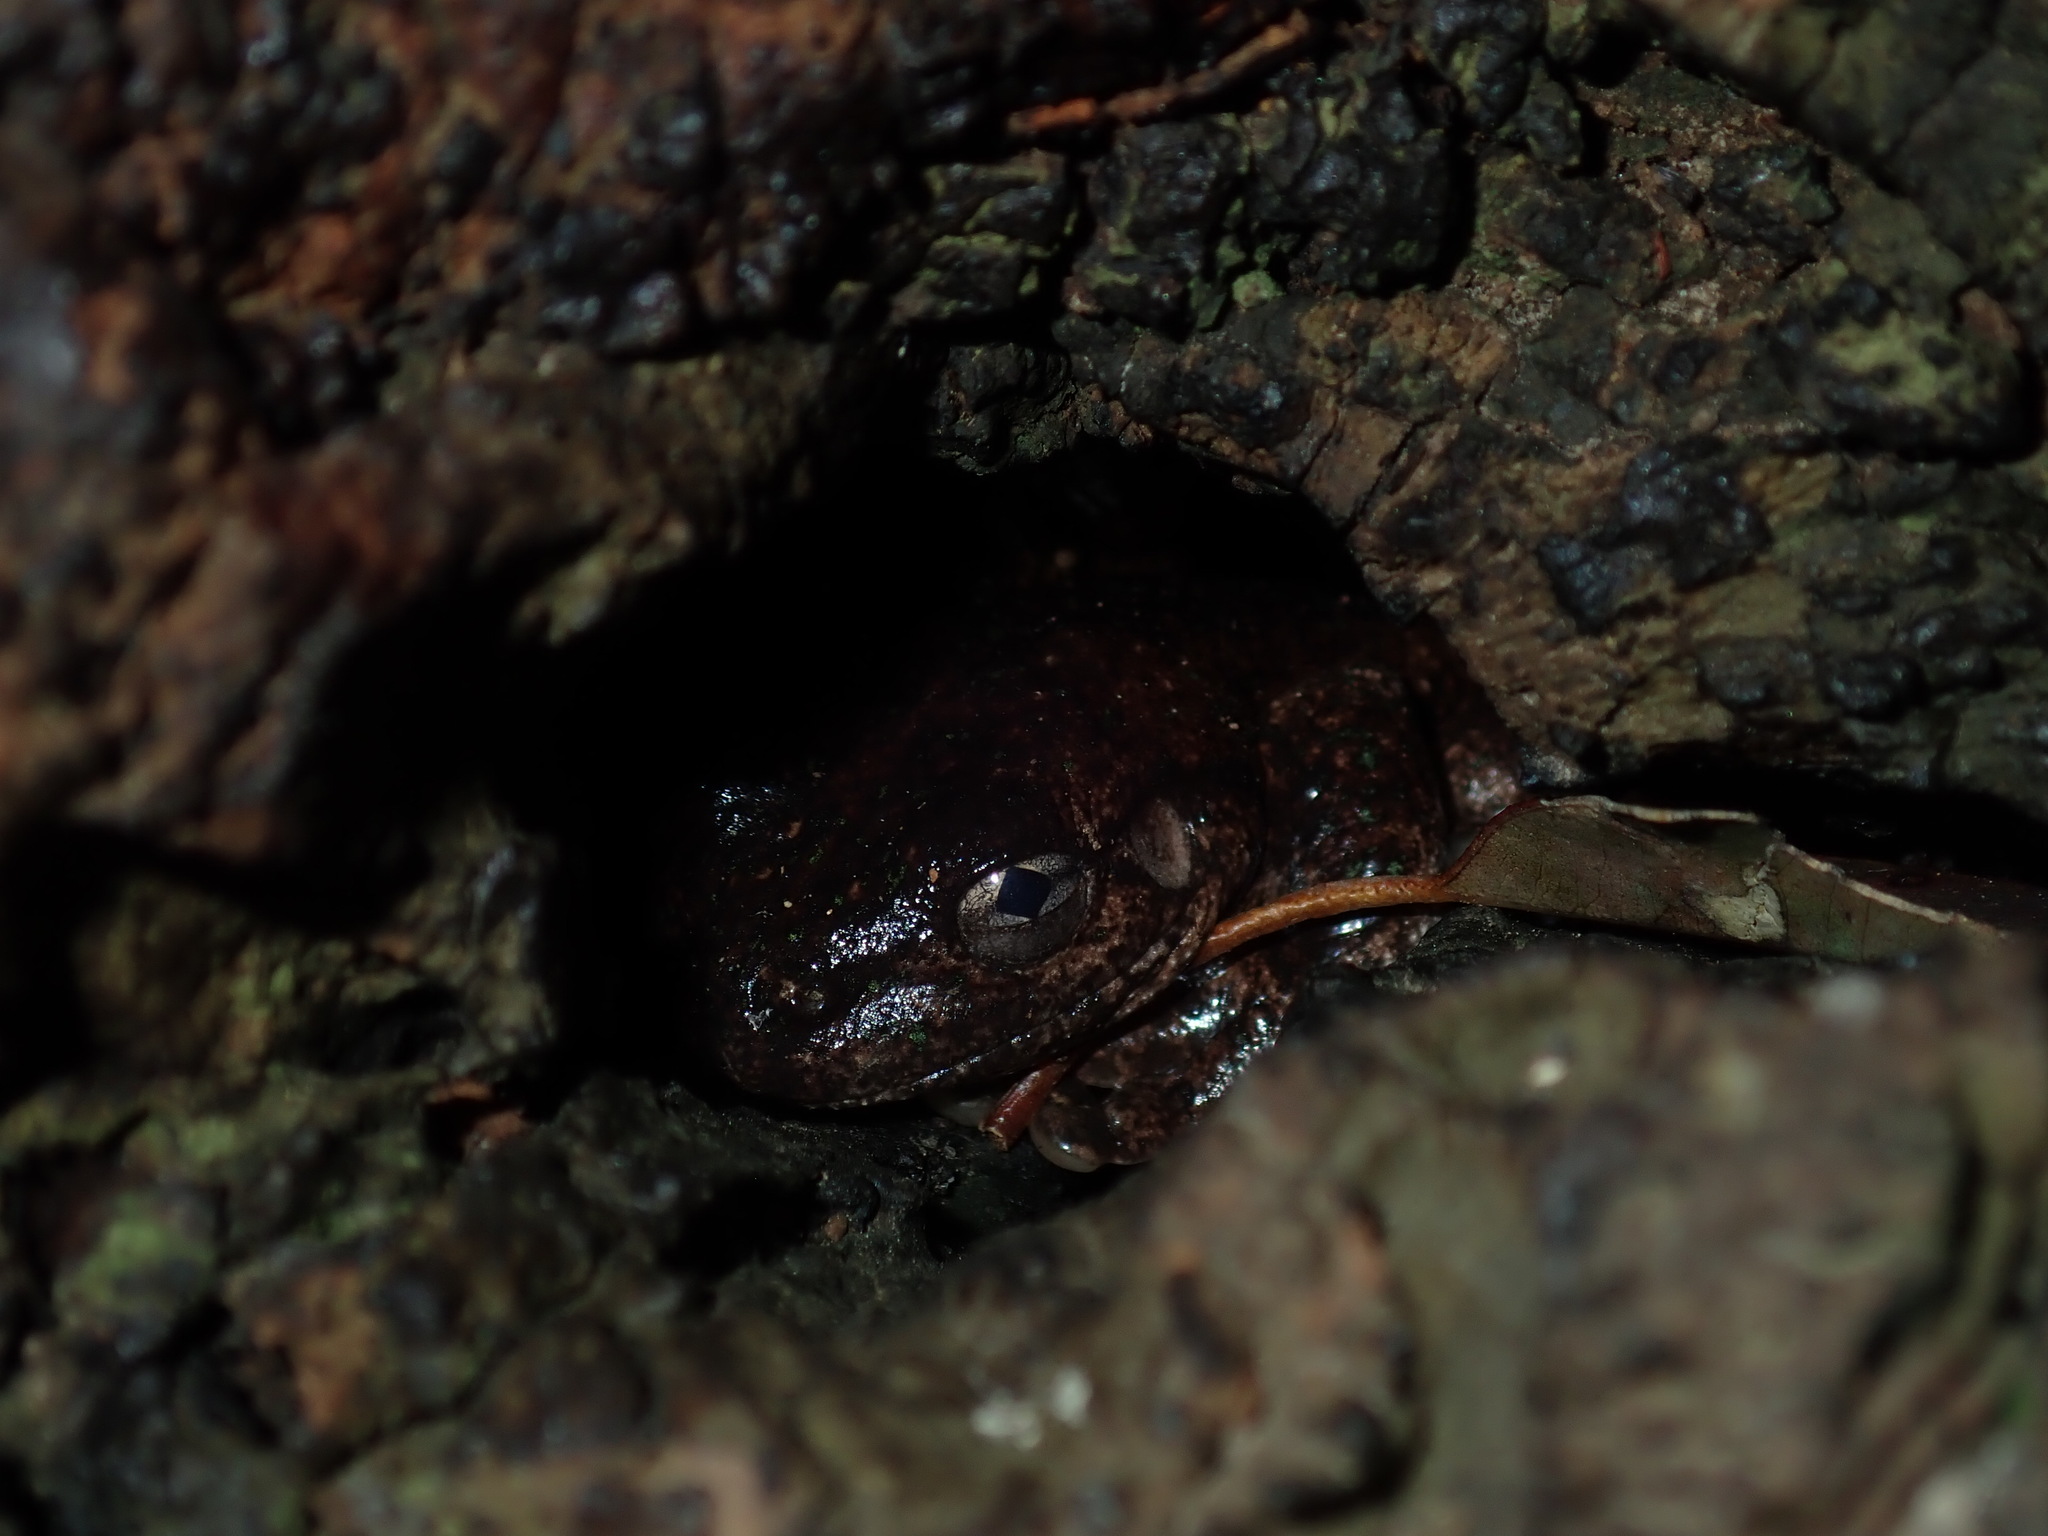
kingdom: Animalia
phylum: Chordata
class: Amphibia
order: Anura
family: Pelodryadidae
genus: Litoria
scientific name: Litoria peronii
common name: Emerald spotted treefrog
